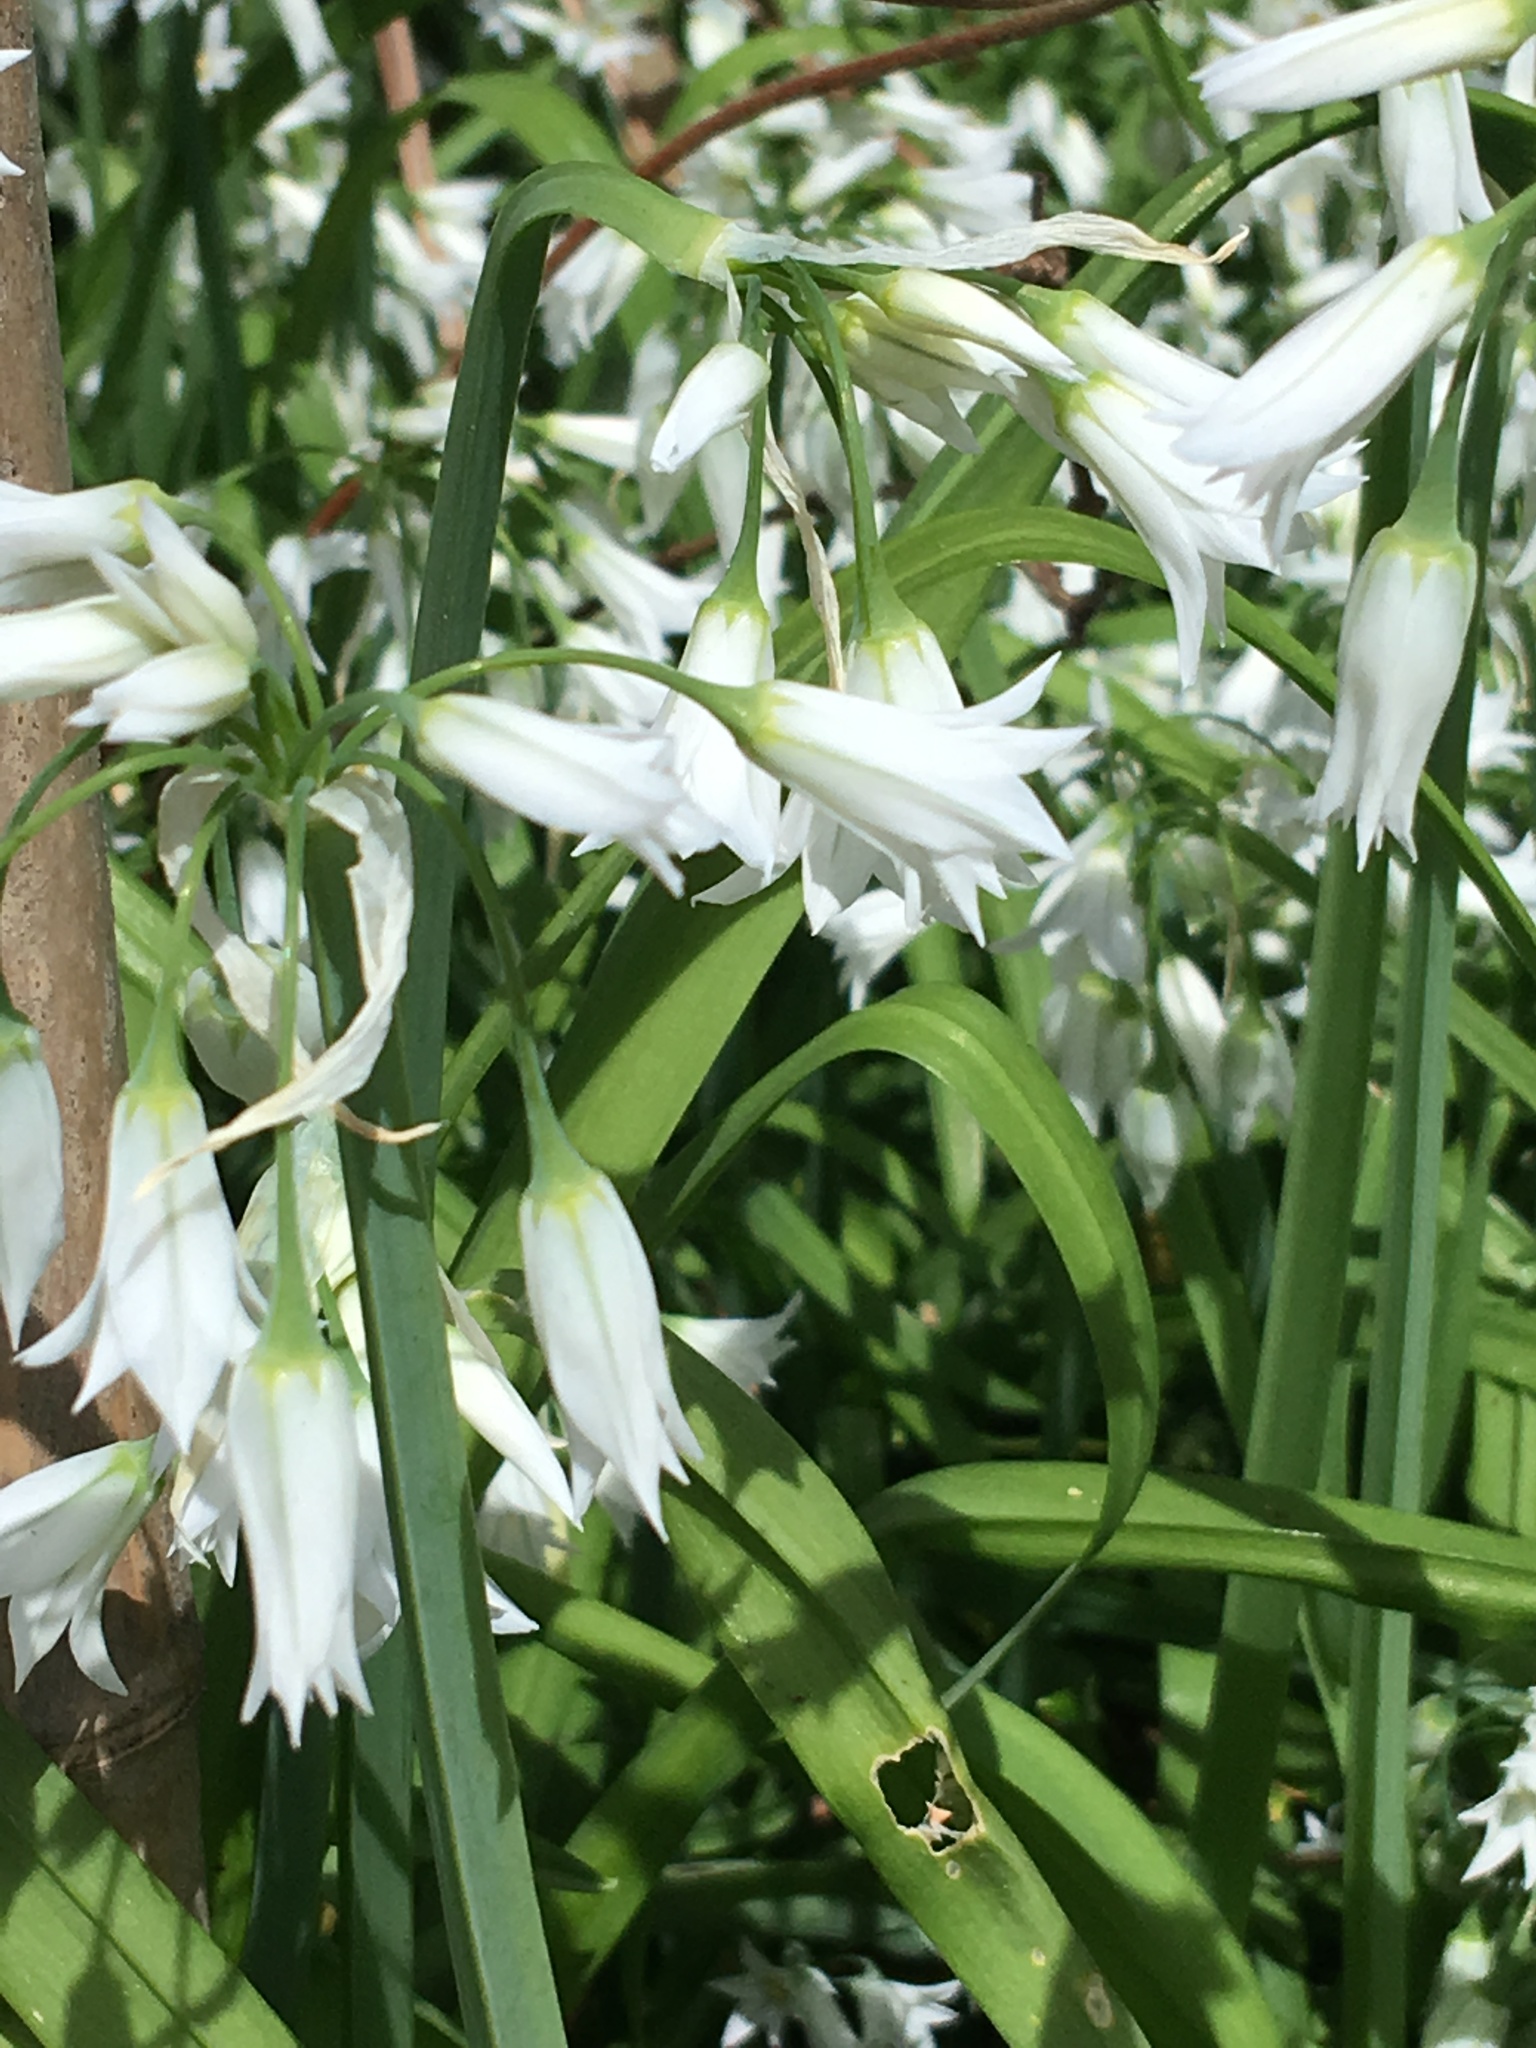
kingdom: Plantae
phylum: Tracheophyta
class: Liliopsida
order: Asparagales
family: Amaryllidaceae
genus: Allium
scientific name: Allium triquetrum
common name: Three-cornered garlic
